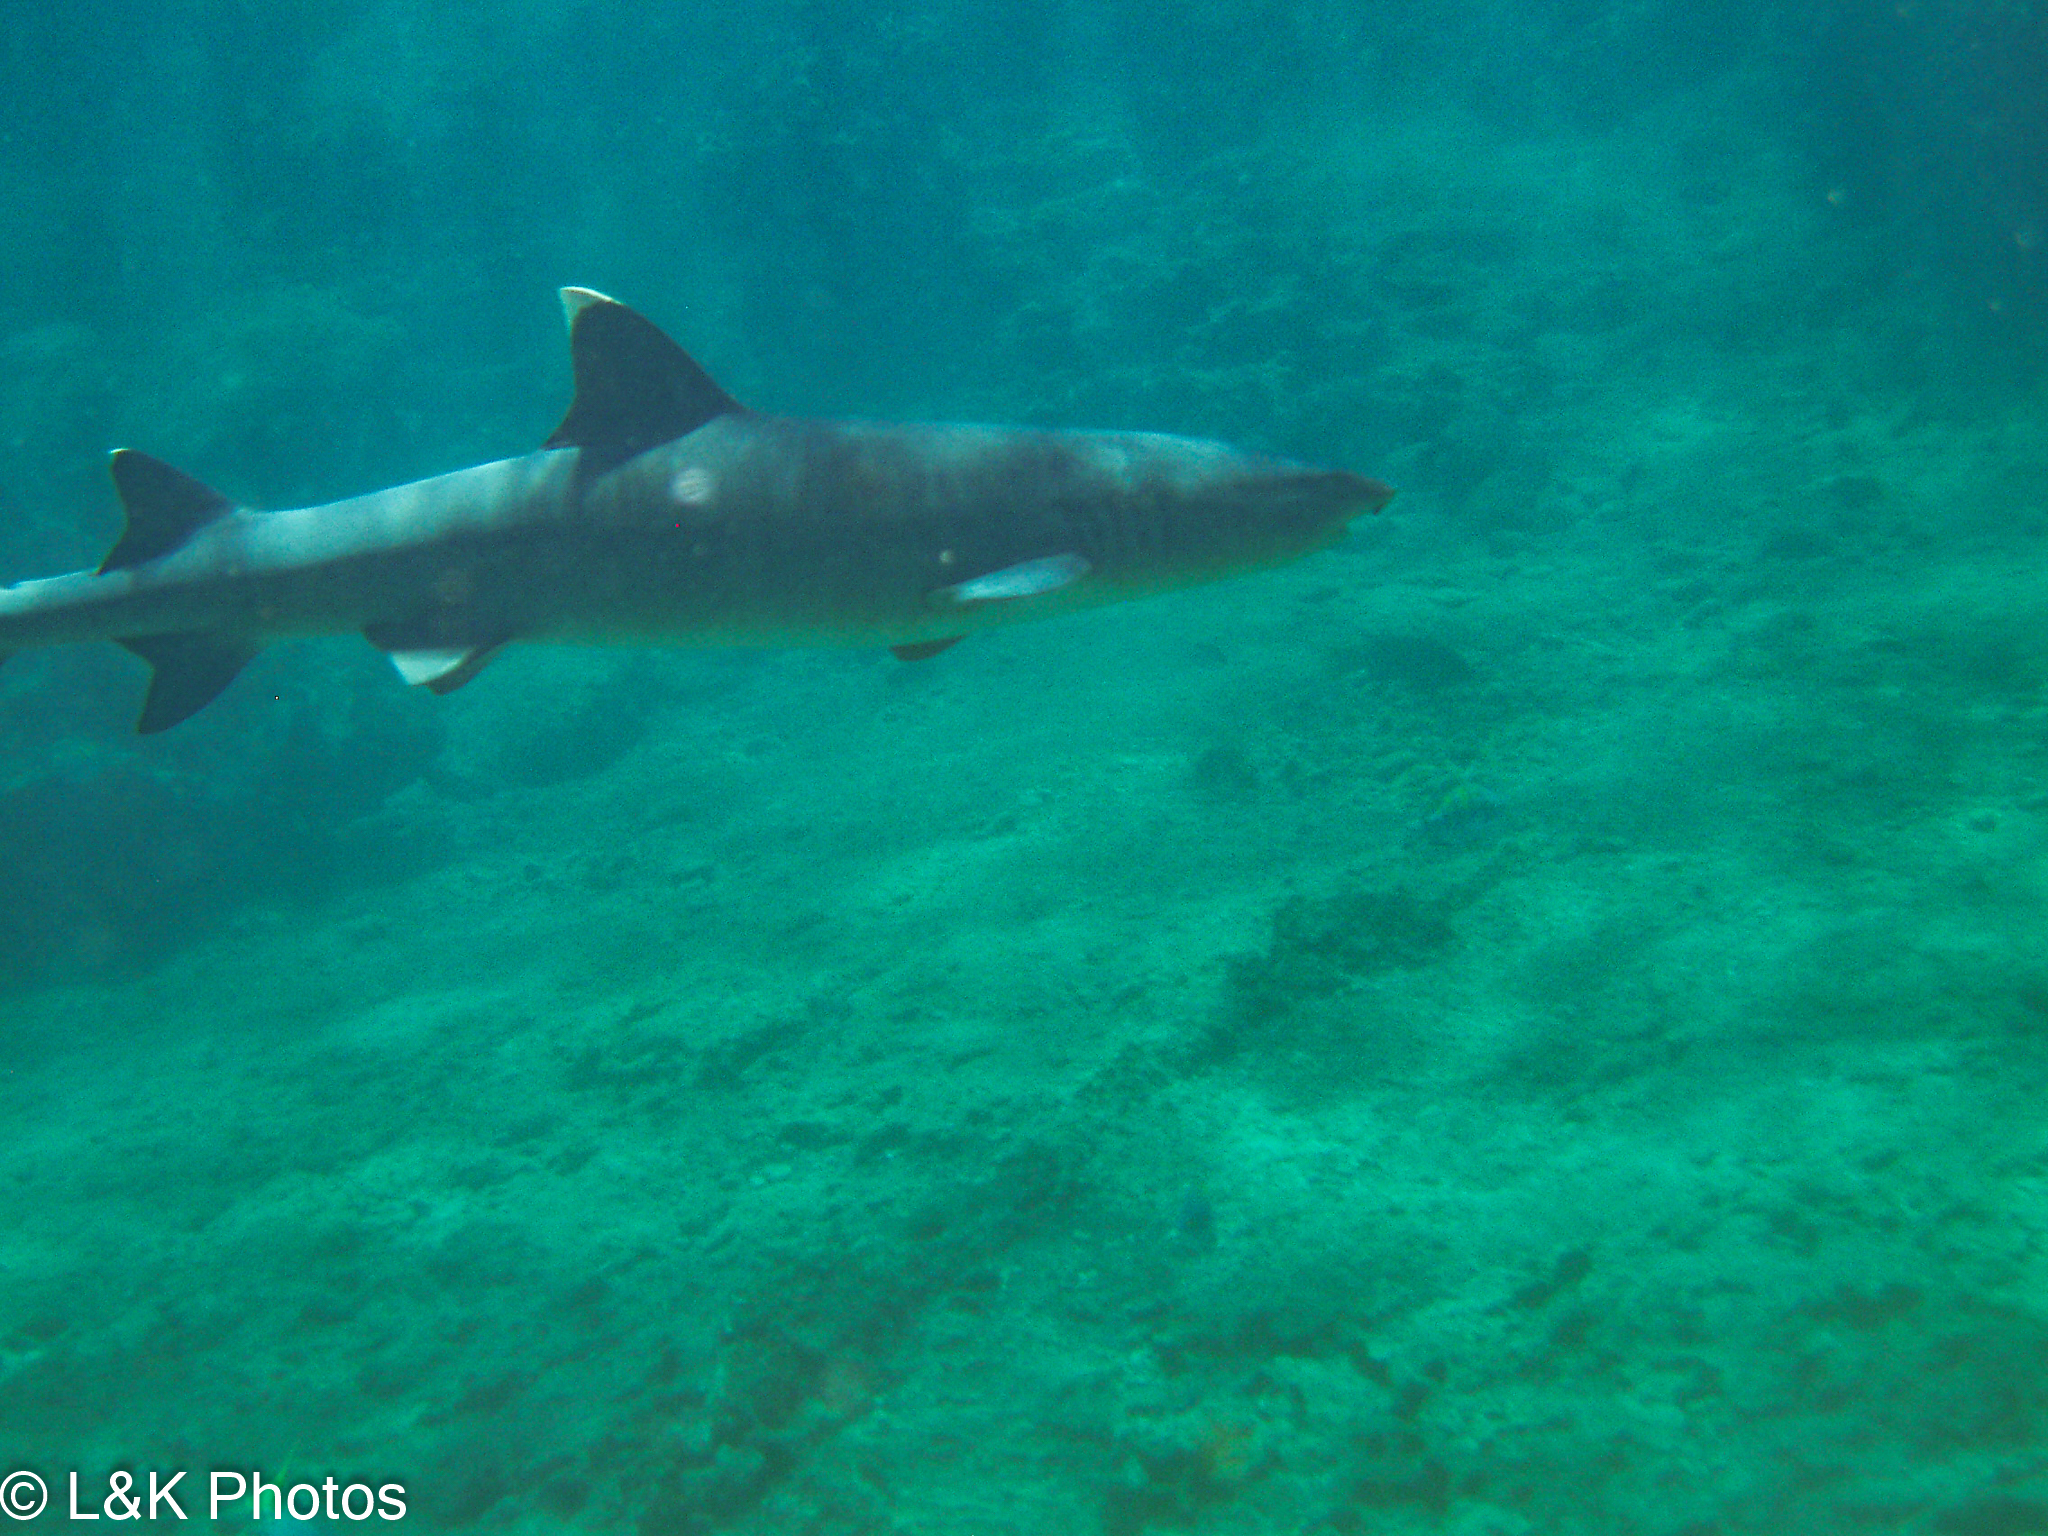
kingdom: Animalia
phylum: Chordata
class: Elasmobranchii
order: Carcharhiniformes
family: Carcharhinidae
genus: Triaenodon
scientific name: Triaenodon obesus
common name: Whitetip reef shark
